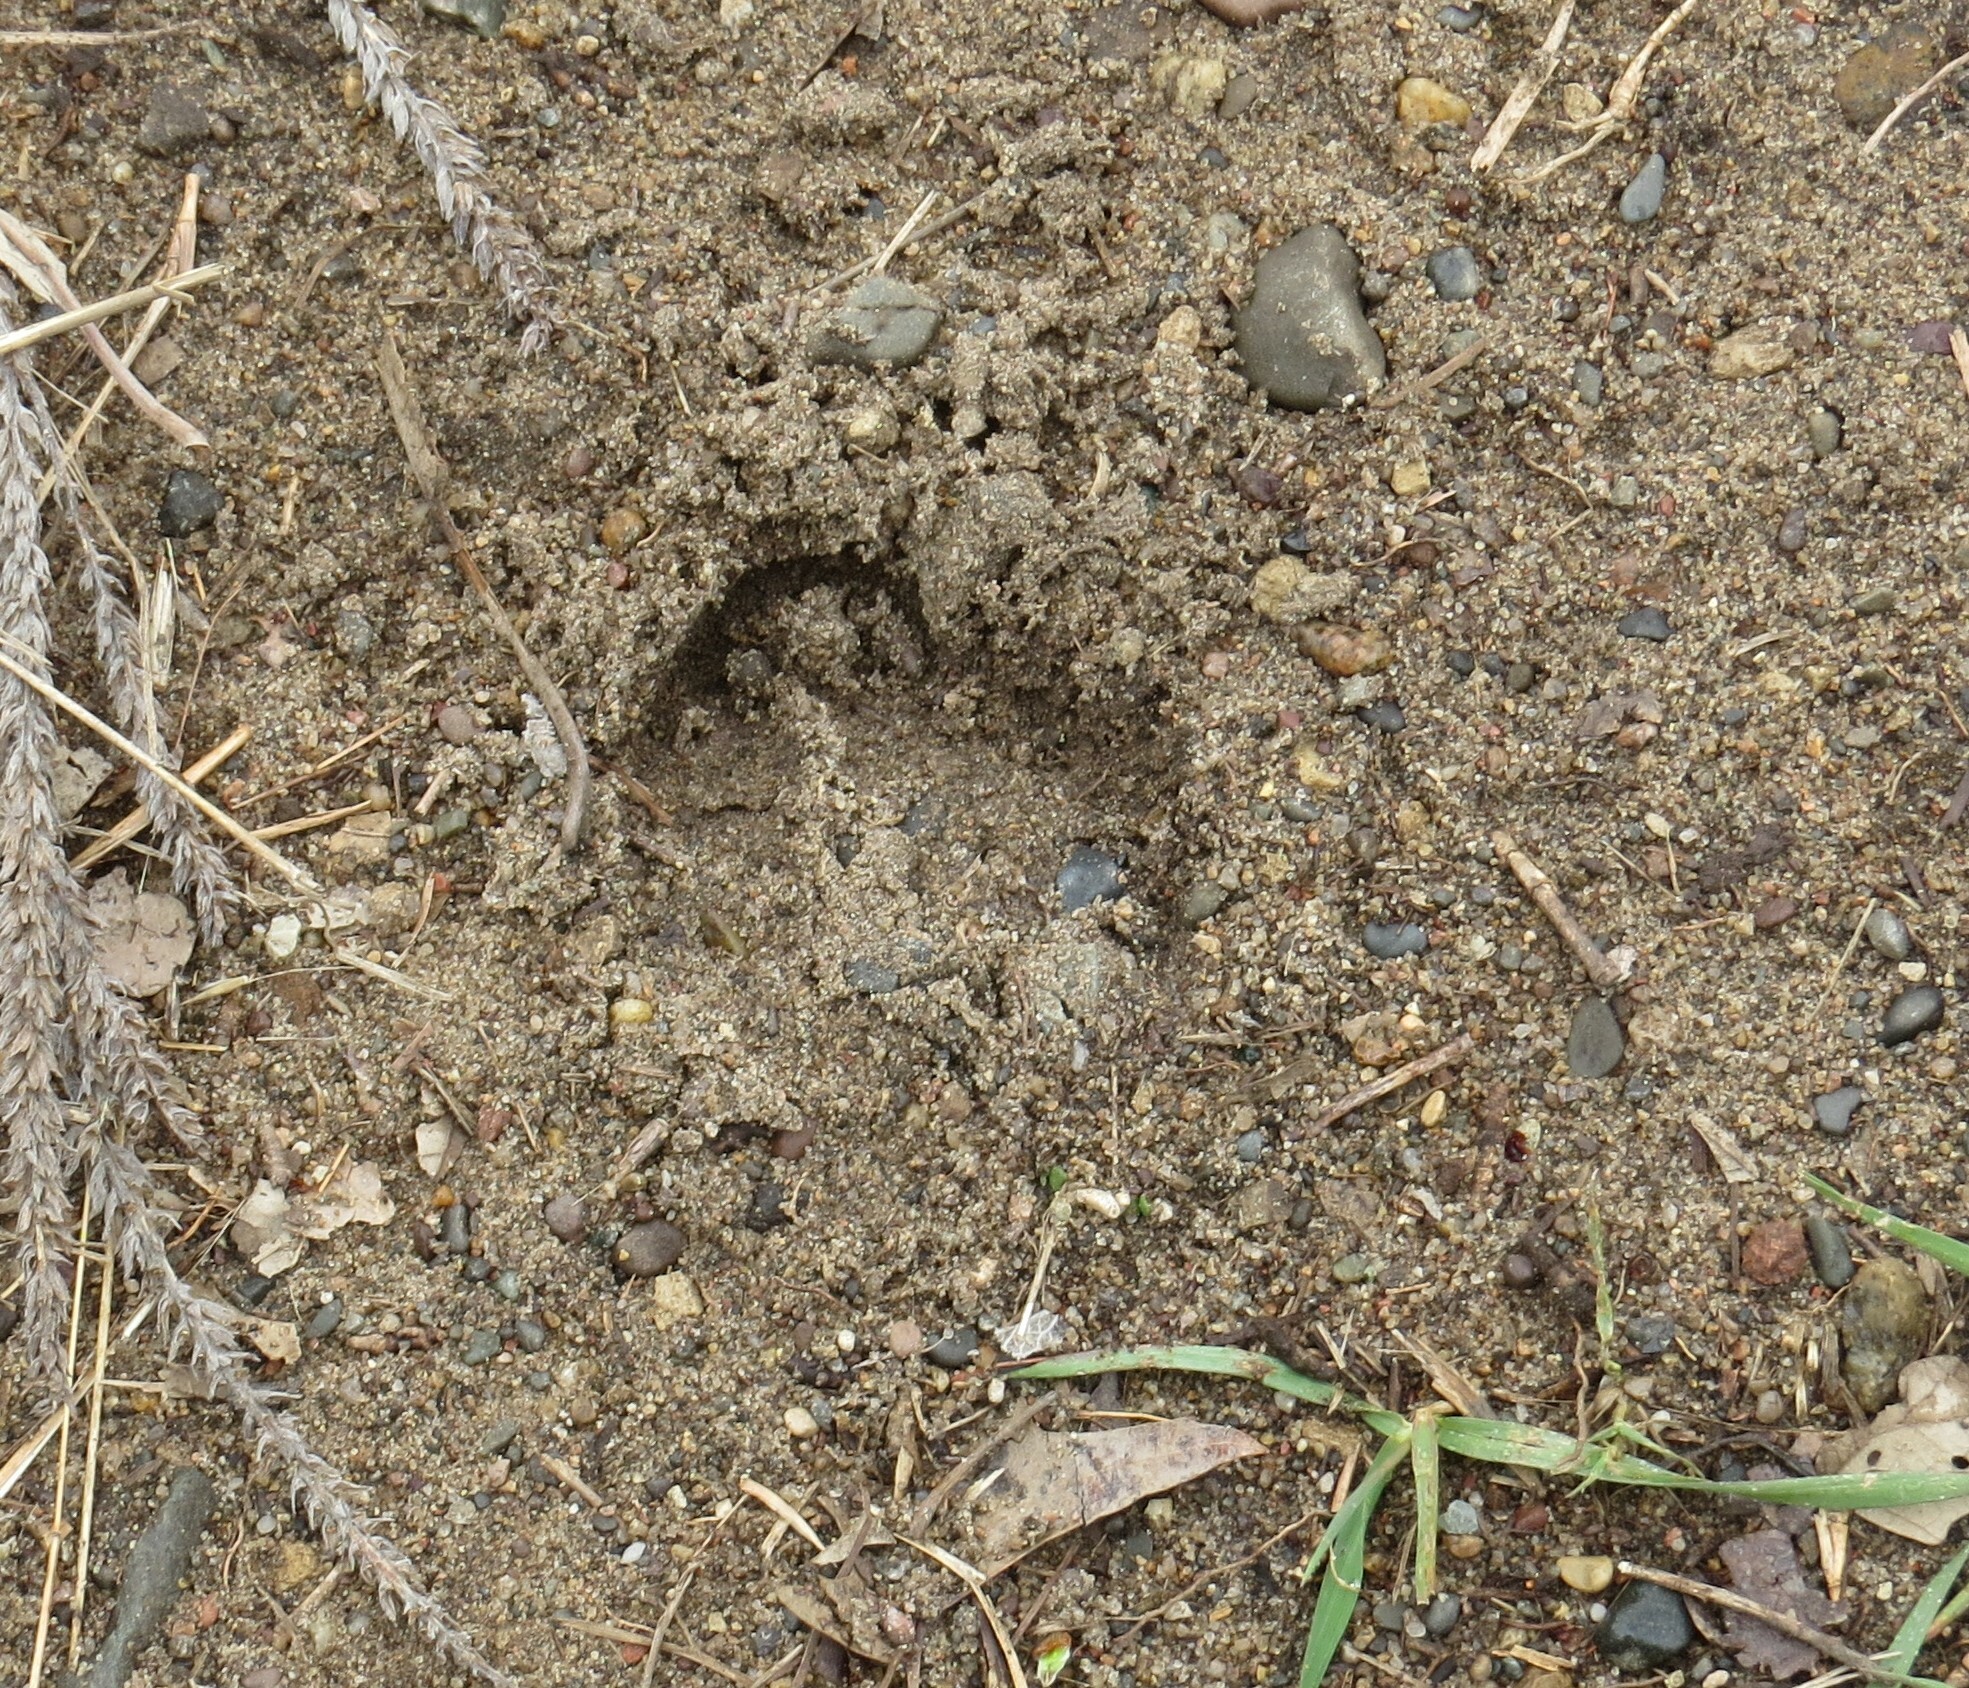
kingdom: Animalia
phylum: Chordata
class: Mammalia
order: Artiodactyla
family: Cervidae
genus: Odocoileus
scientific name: Odocoileus virginianus
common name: White-tailed deer
